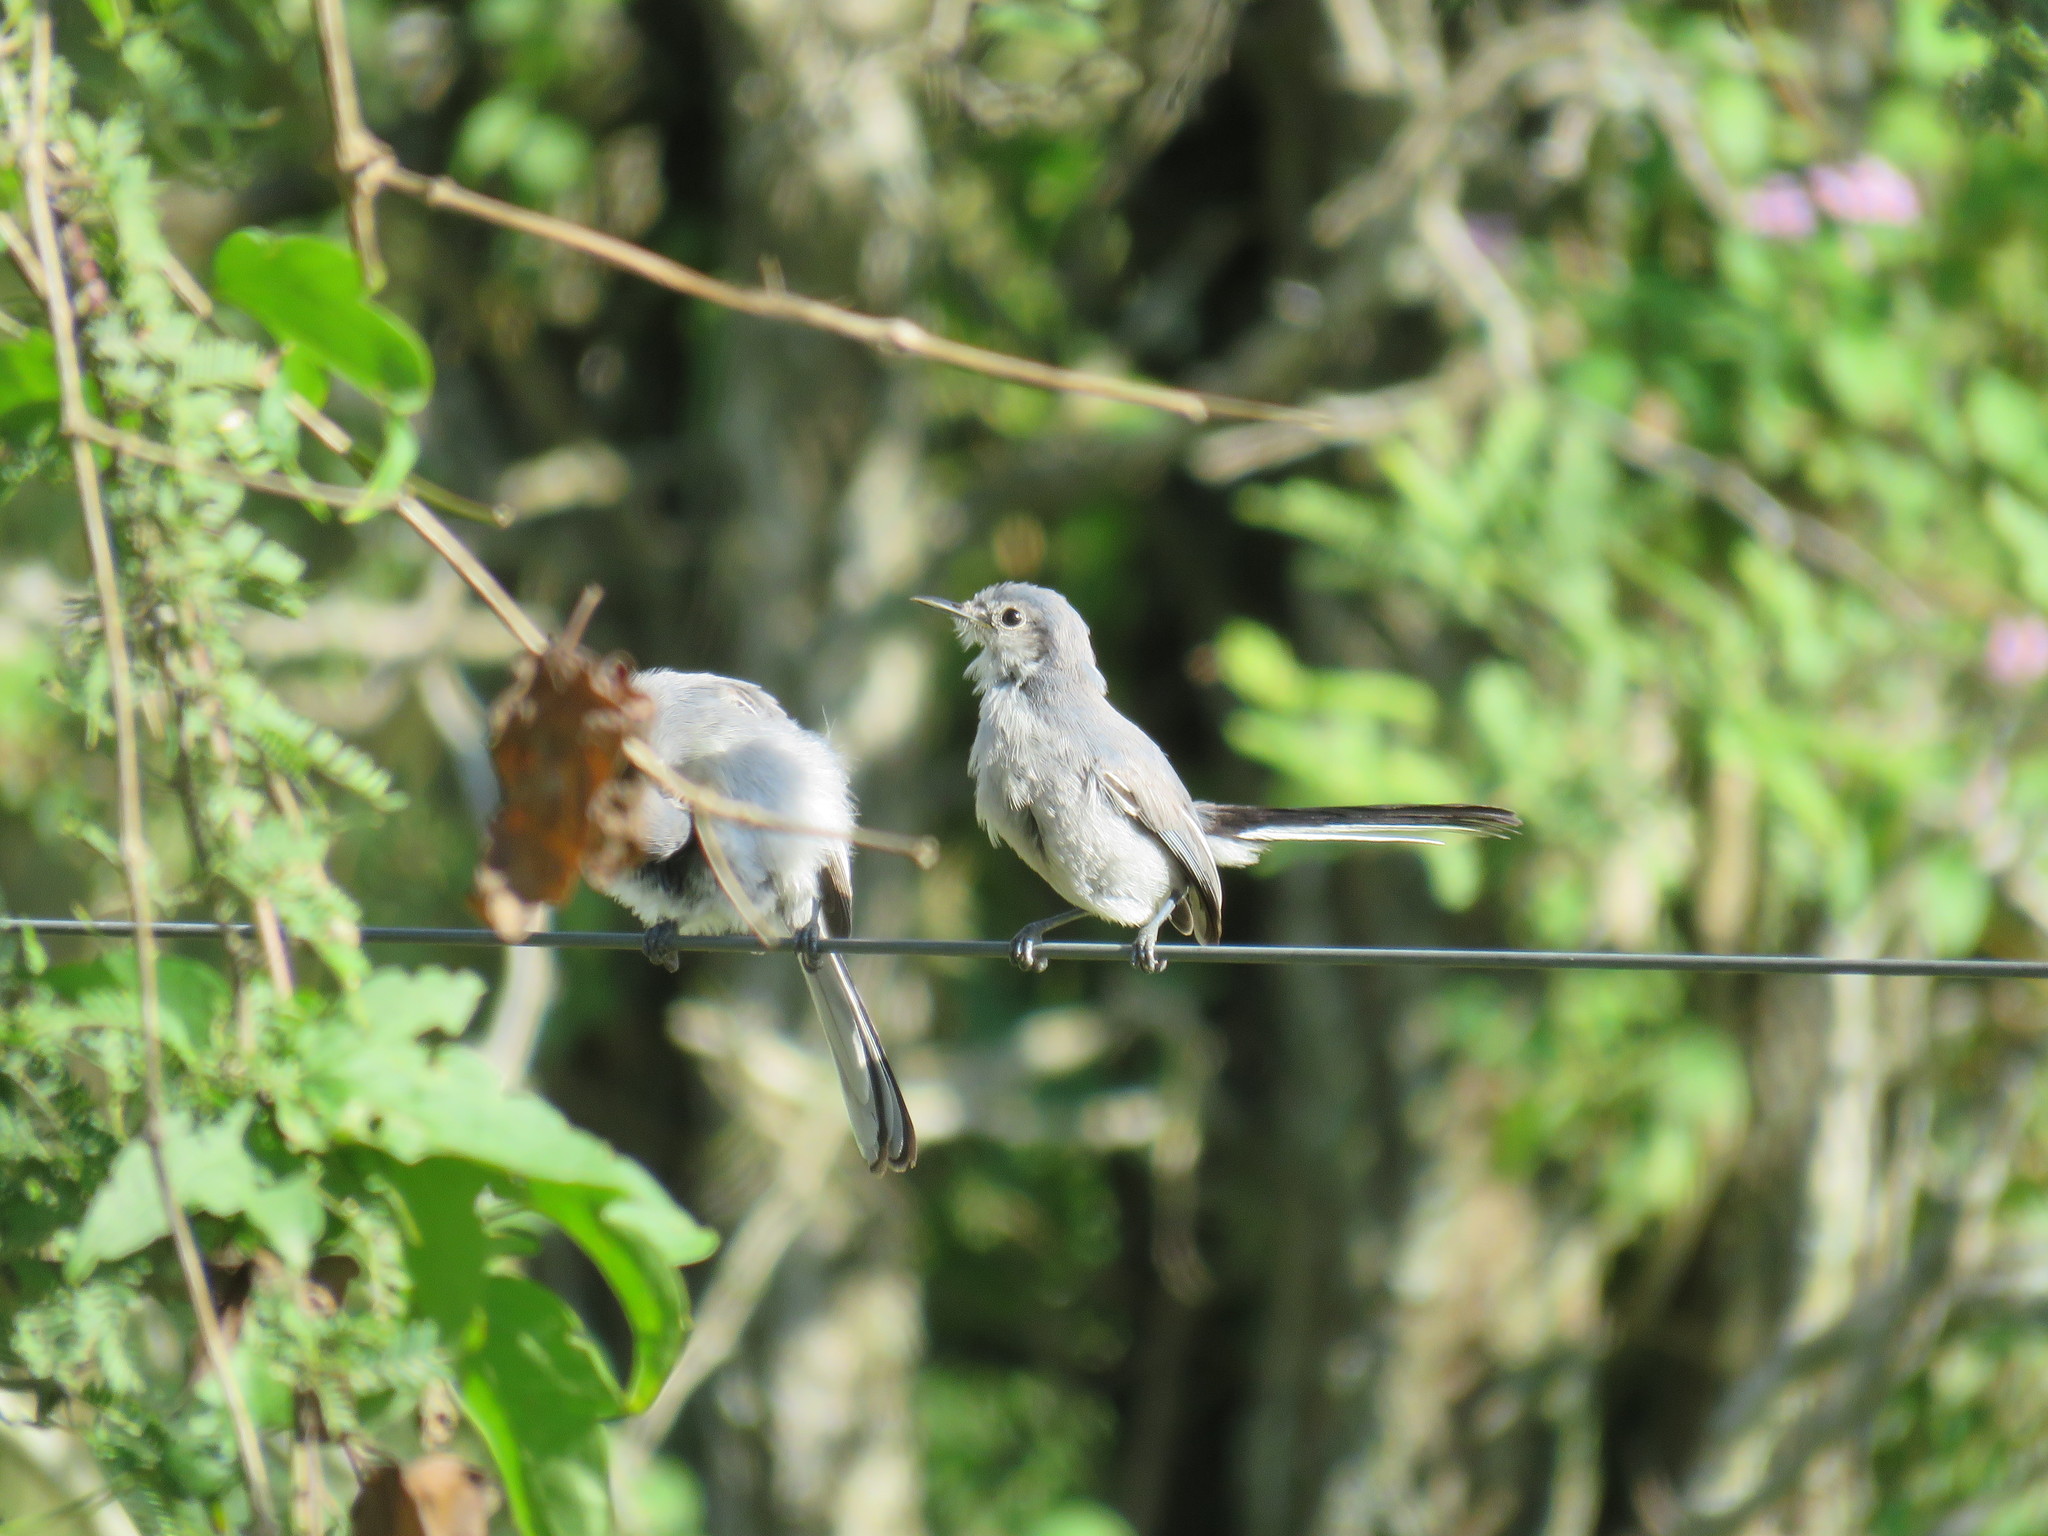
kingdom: Animalia
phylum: Chordata
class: Aves
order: Passeriformes
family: Polioptilidae
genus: Polioptila
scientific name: Polioptila dumicola
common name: Masked gnatcatcher
